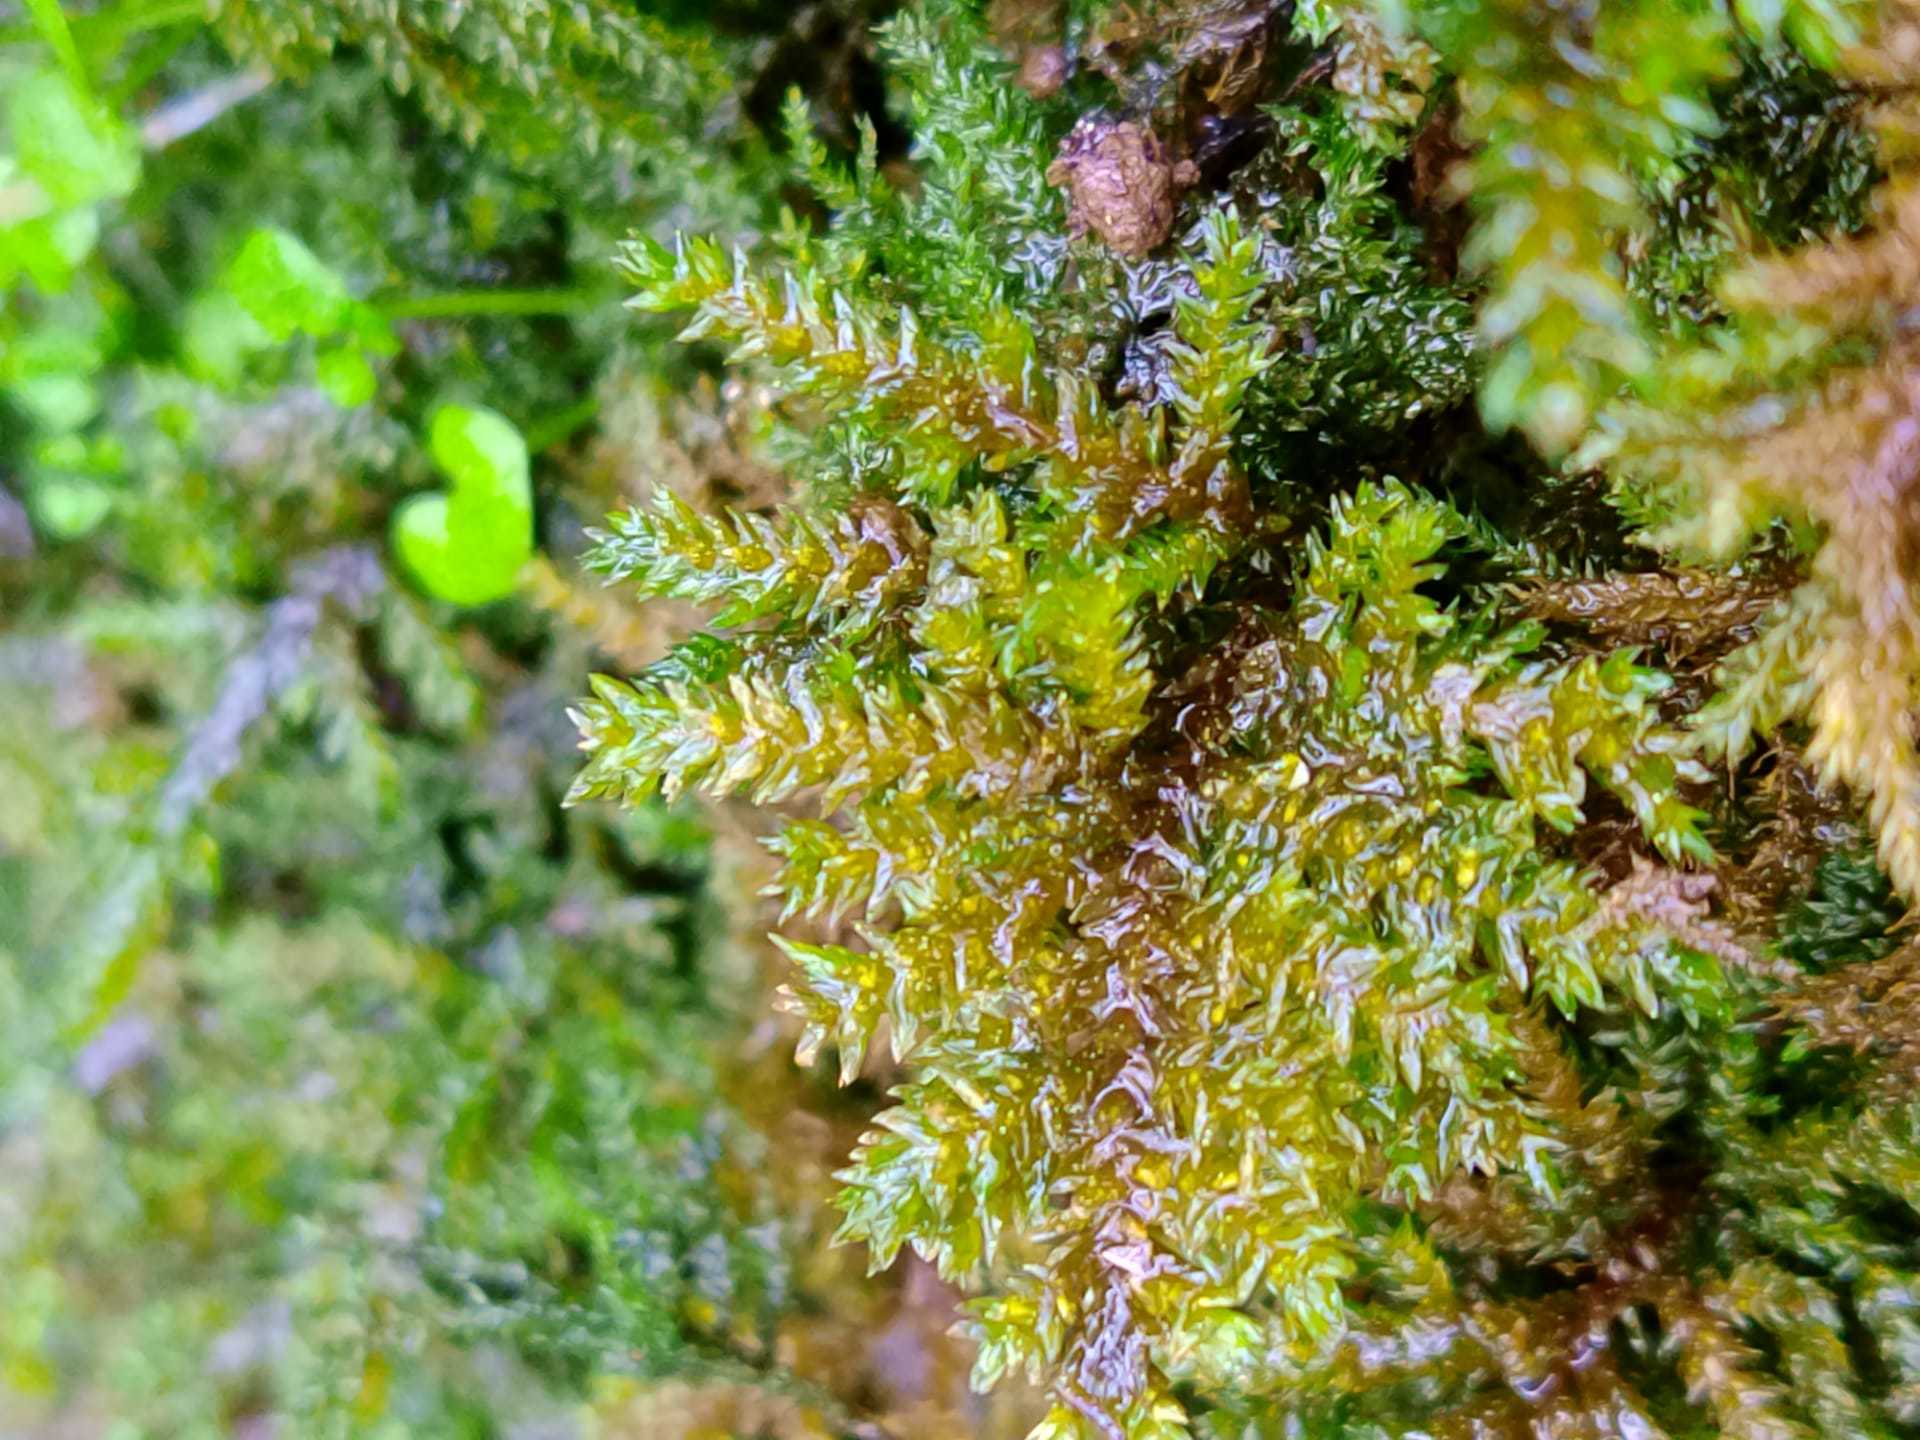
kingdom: Plantae
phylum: Bryophyta
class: Bryopsida
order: Hypnales
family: Climaciaceae
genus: Climacium
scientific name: Climacium dendroides
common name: Northern tree moss
